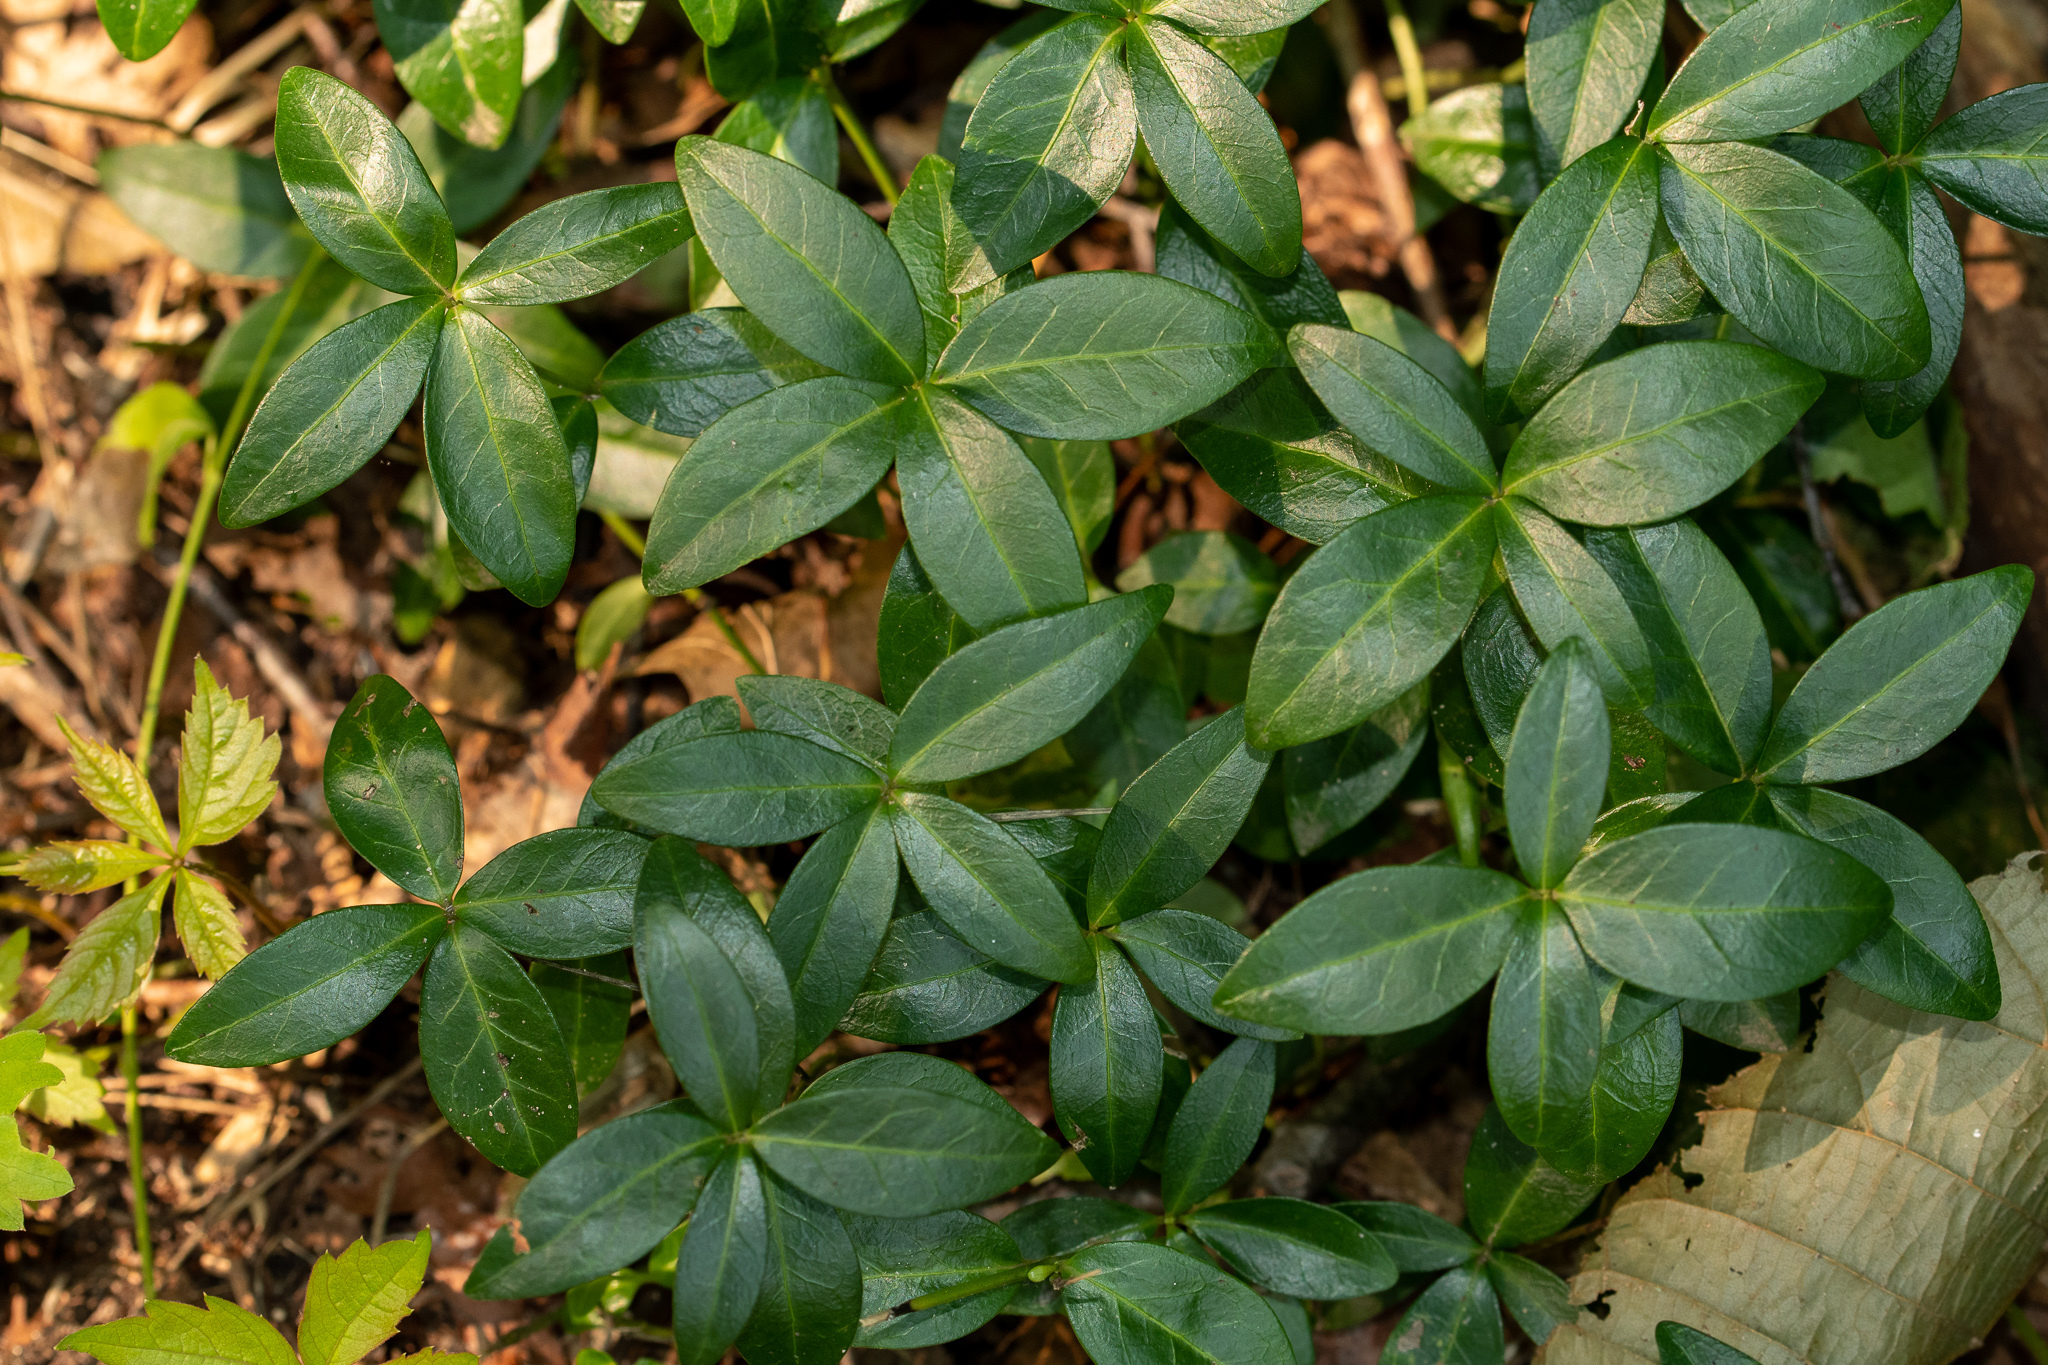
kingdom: Plantae
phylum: Tracheophyta
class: Magnoliopsida
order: Gentianales
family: Apocynaceae
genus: Vinca
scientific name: Vinca minor
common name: Lesser periwinkle
